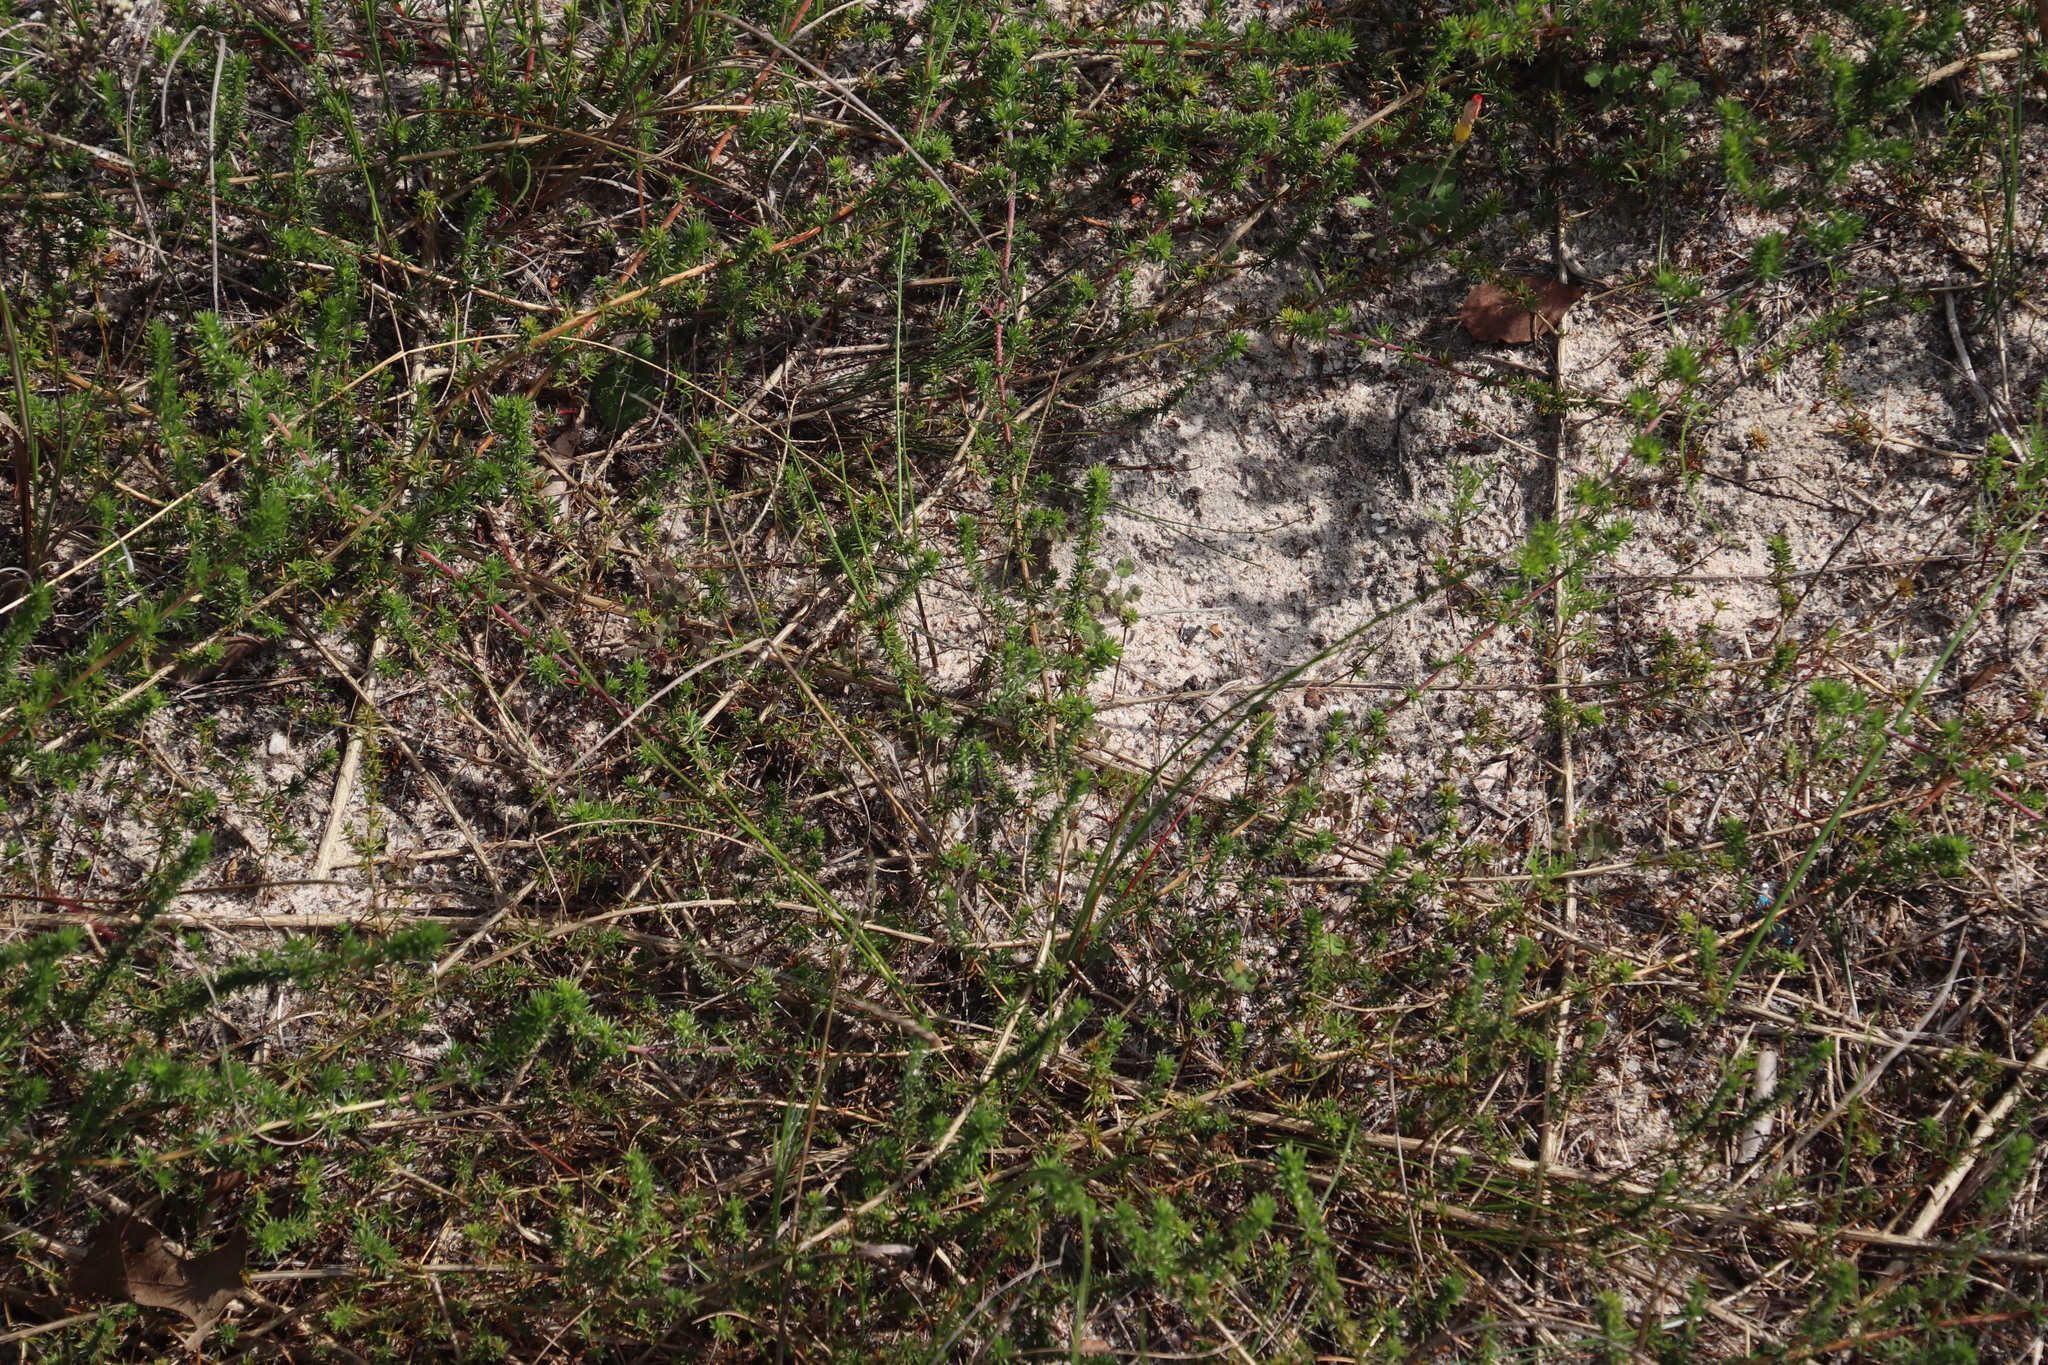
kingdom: Plantae
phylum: Tracheophyta
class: Magnoliopsida
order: Fabales
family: Fabaceae
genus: Aspalathus
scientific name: Aspalathus retroflexa
